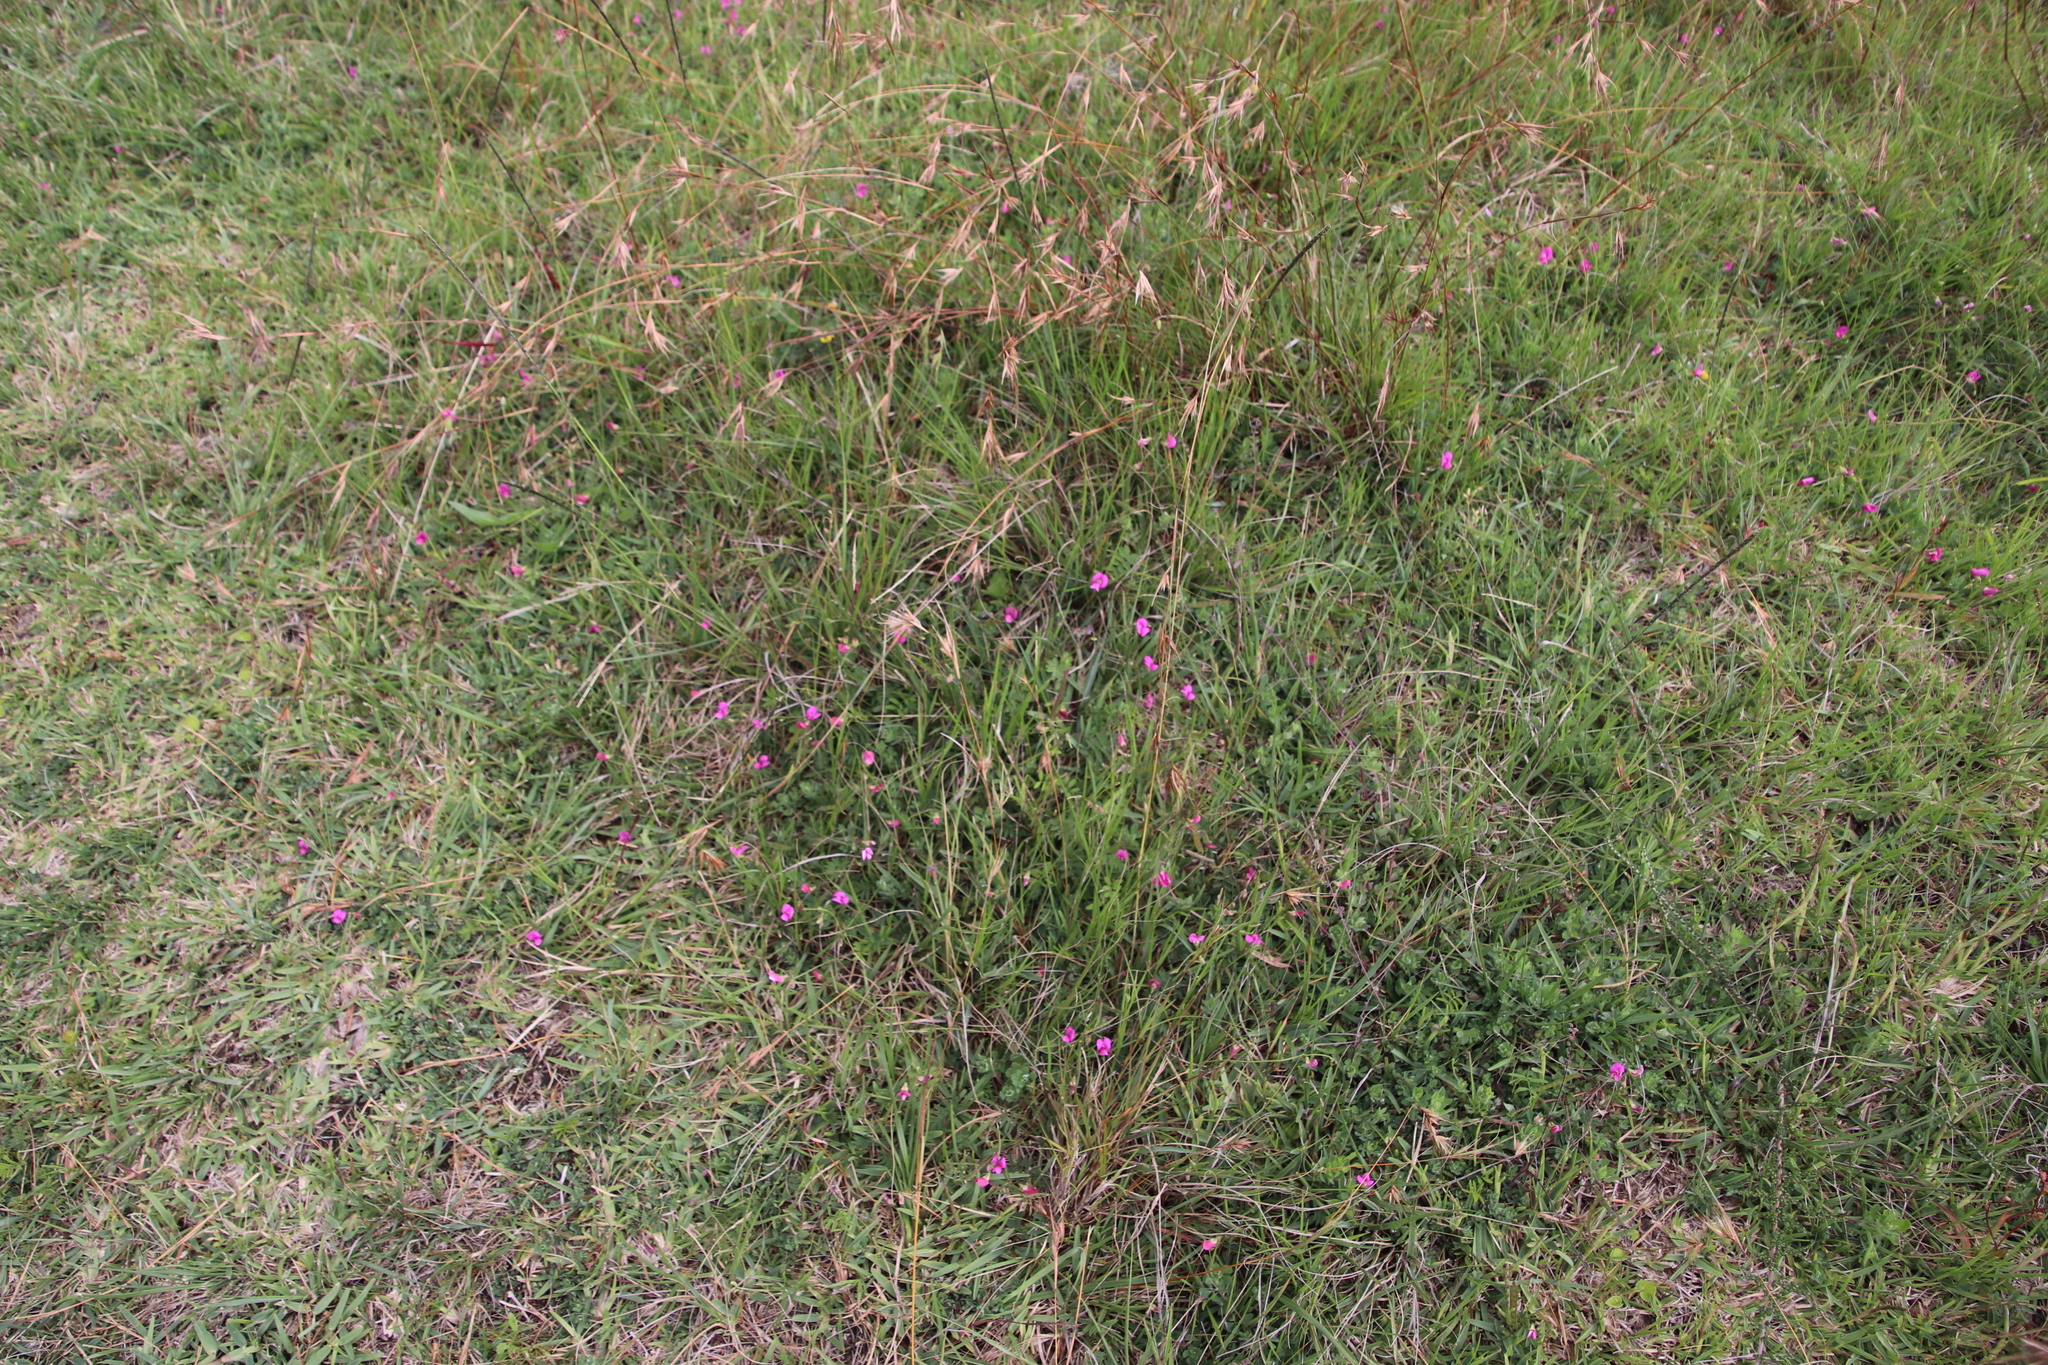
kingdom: Plantae
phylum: Tracheophyta
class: Magnoliopsida
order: Fabales
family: Fabaceae
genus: Tephrosia
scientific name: Tephrosia capensis
